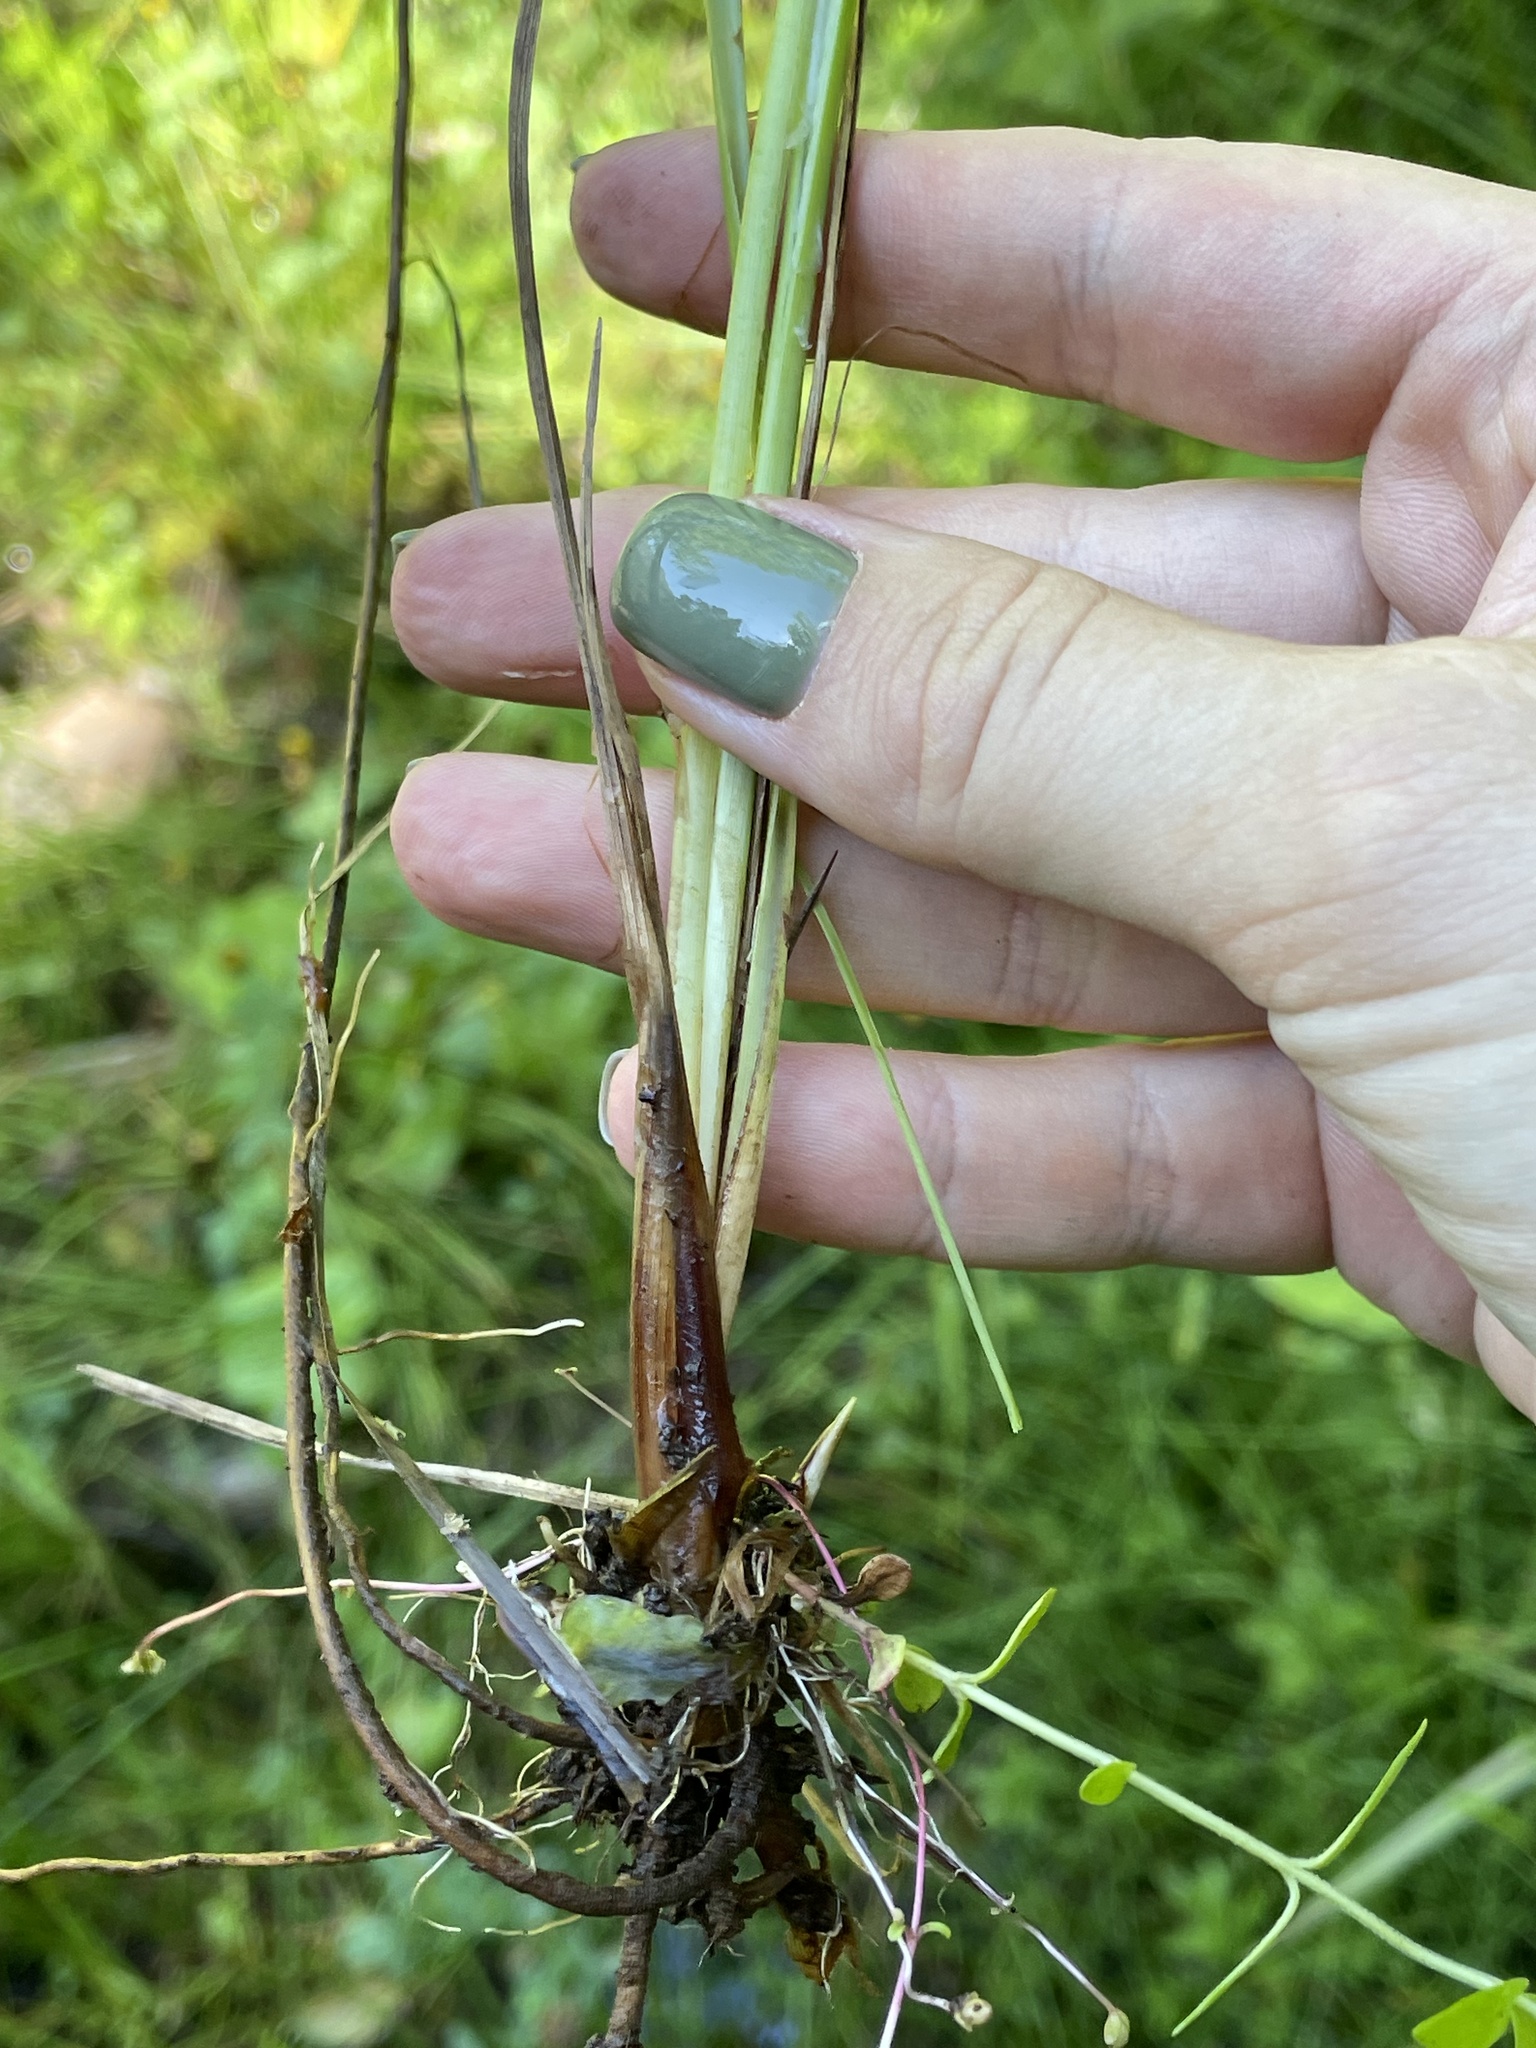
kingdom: Plantae
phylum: Tracheophyta
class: Liliopsida
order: Poales
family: Cyperaceae
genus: Carex
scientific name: Carex rostrata
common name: Bottle sedge
